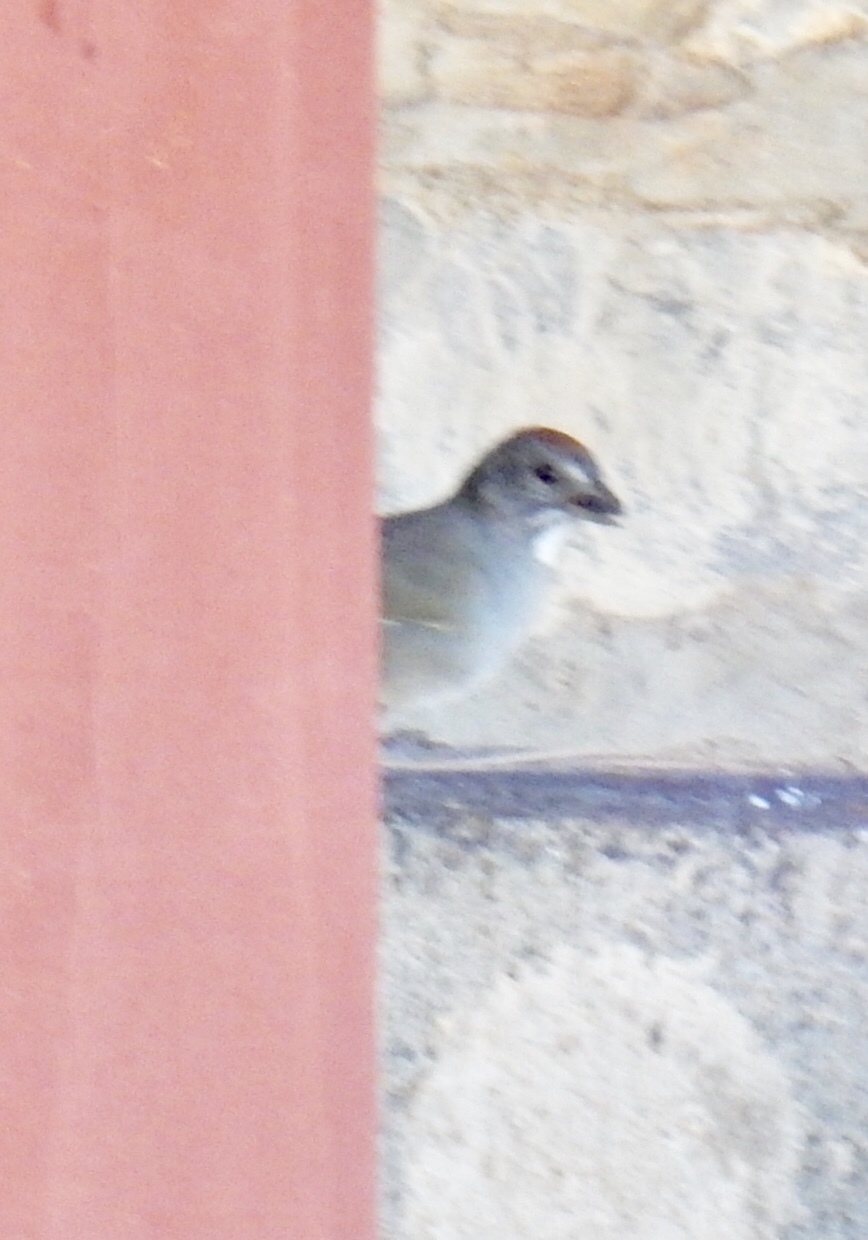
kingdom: Animalia
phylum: Chordata
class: Aves
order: Passeriformes
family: Passerellidae
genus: Pipilo
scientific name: Pipilo chlorurus
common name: Green-tailed towhee
